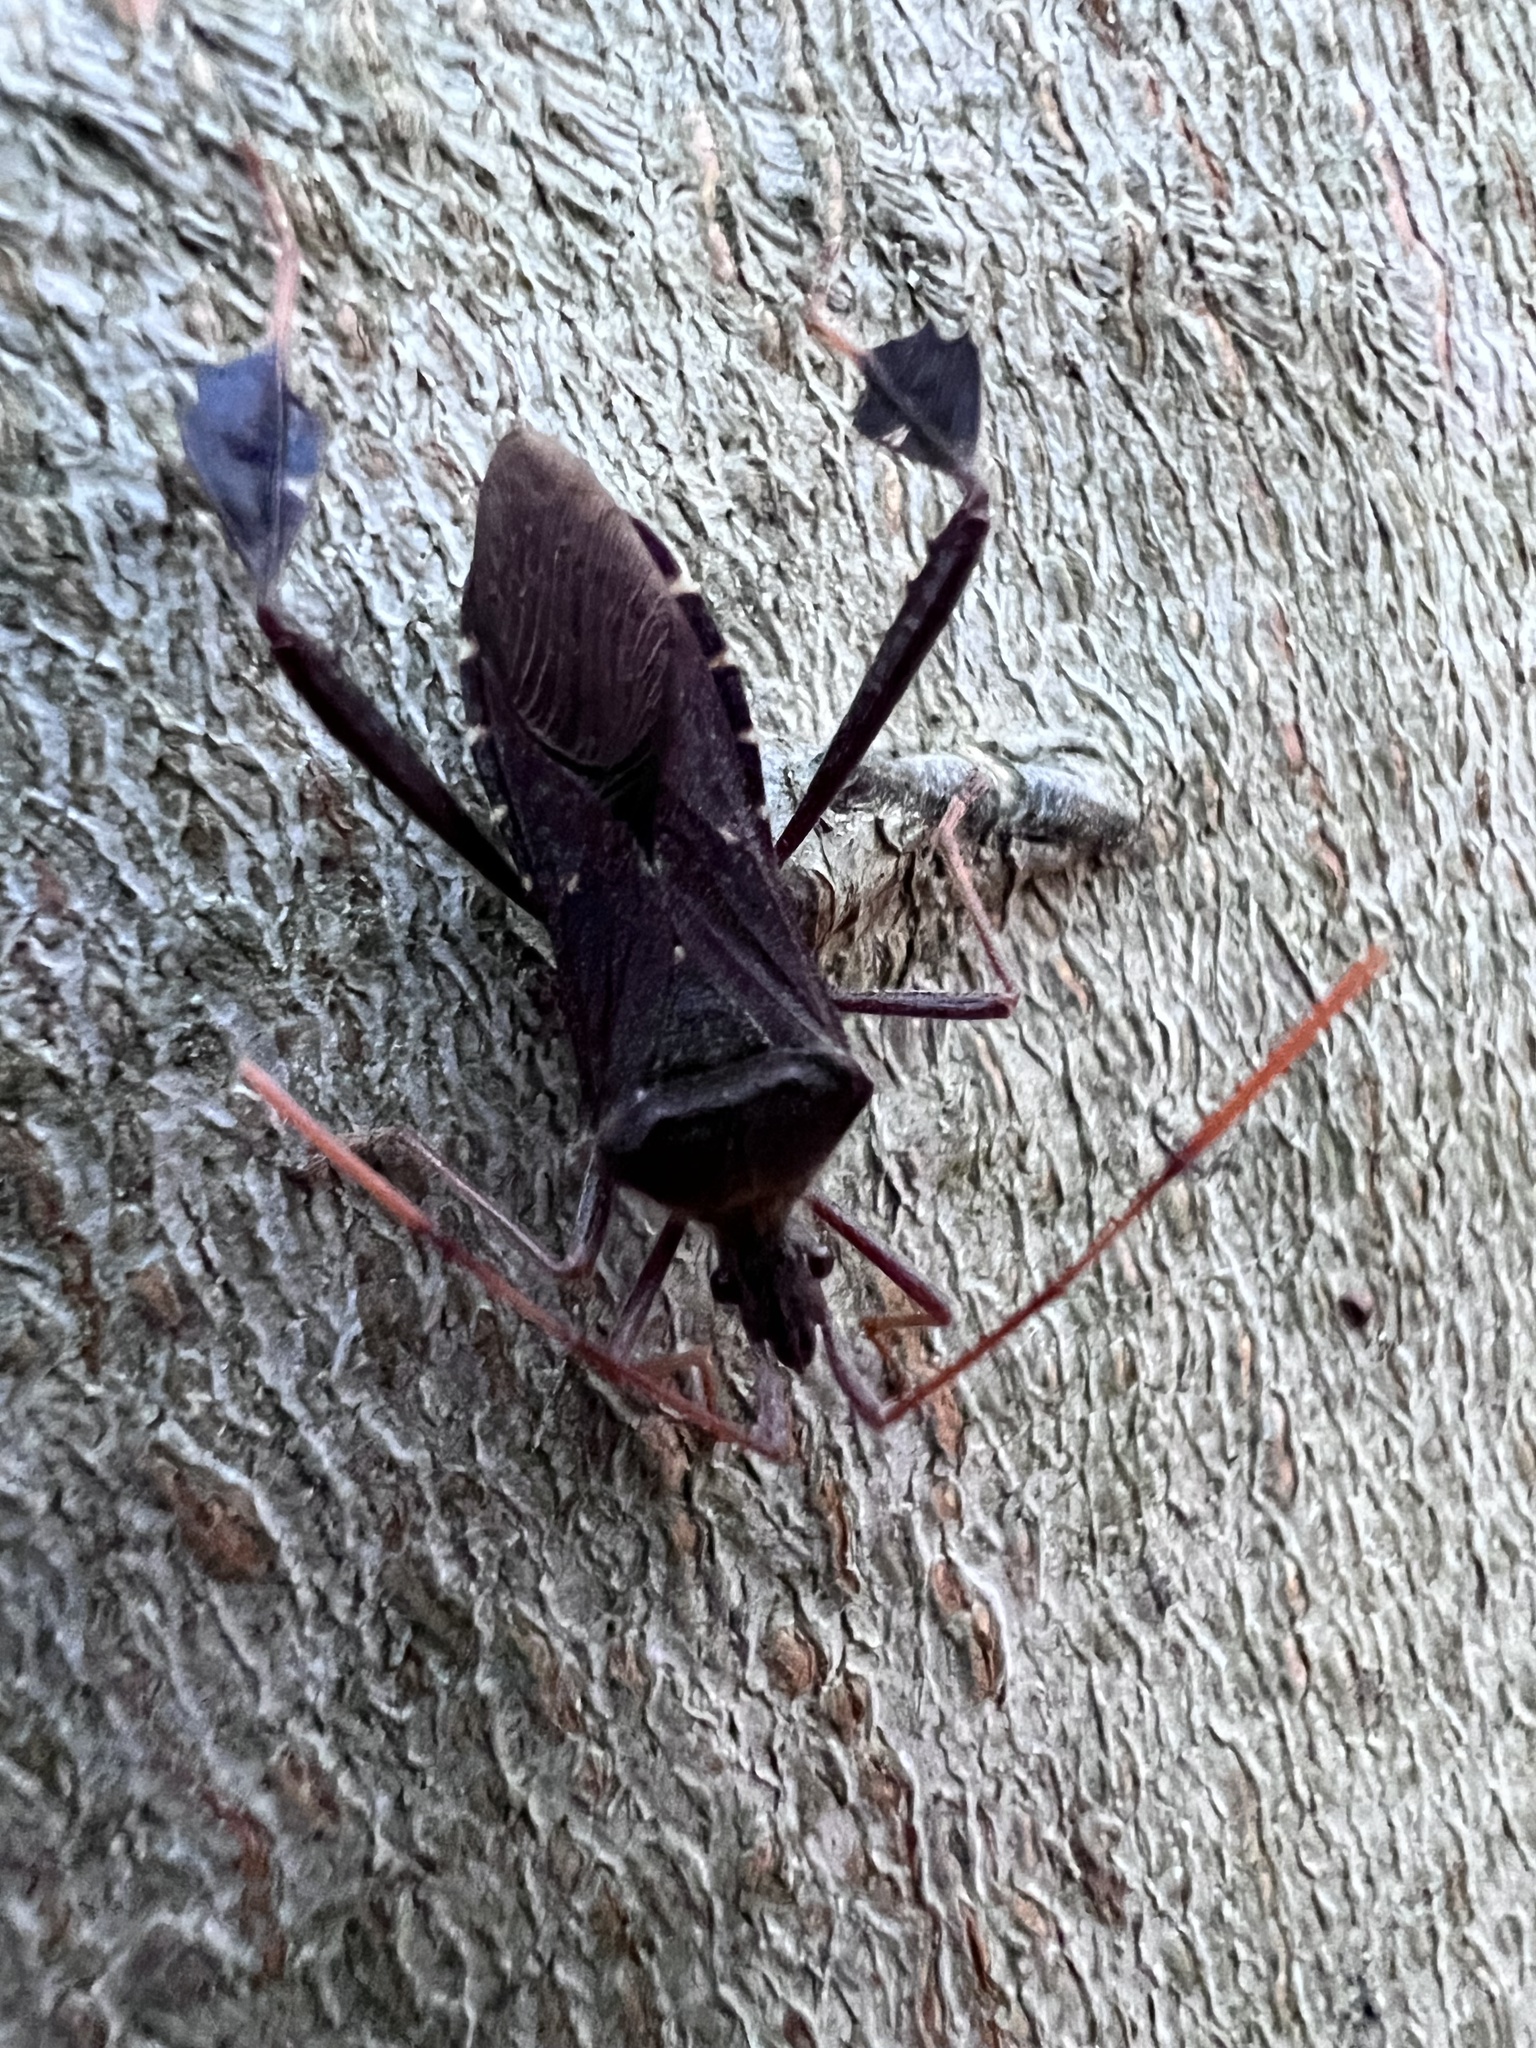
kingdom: Animalia
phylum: Arthropoda
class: Insecta
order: Hemiptera
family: Coreidae
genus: Leptoglossus
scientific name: Leptoglossus oppositus
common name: Northern leaf-footed bug
